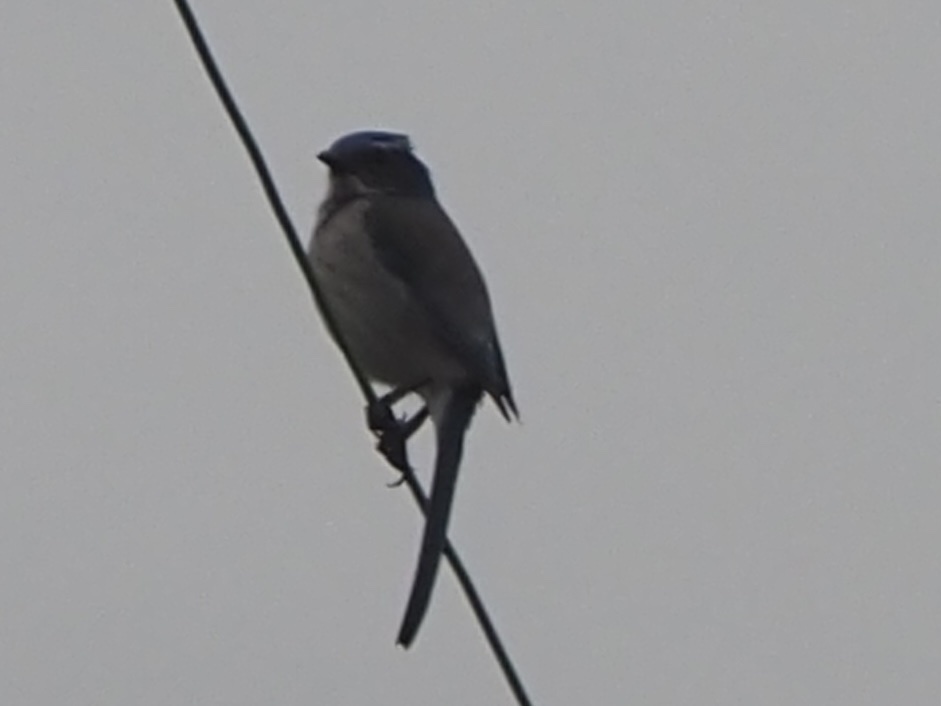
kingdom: Animalia
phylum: Chordata
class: Aves
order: Passeriformes
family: Corvidae
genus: Aphelocoma
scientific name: Aphelocoma californica
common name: California scrub-jay
